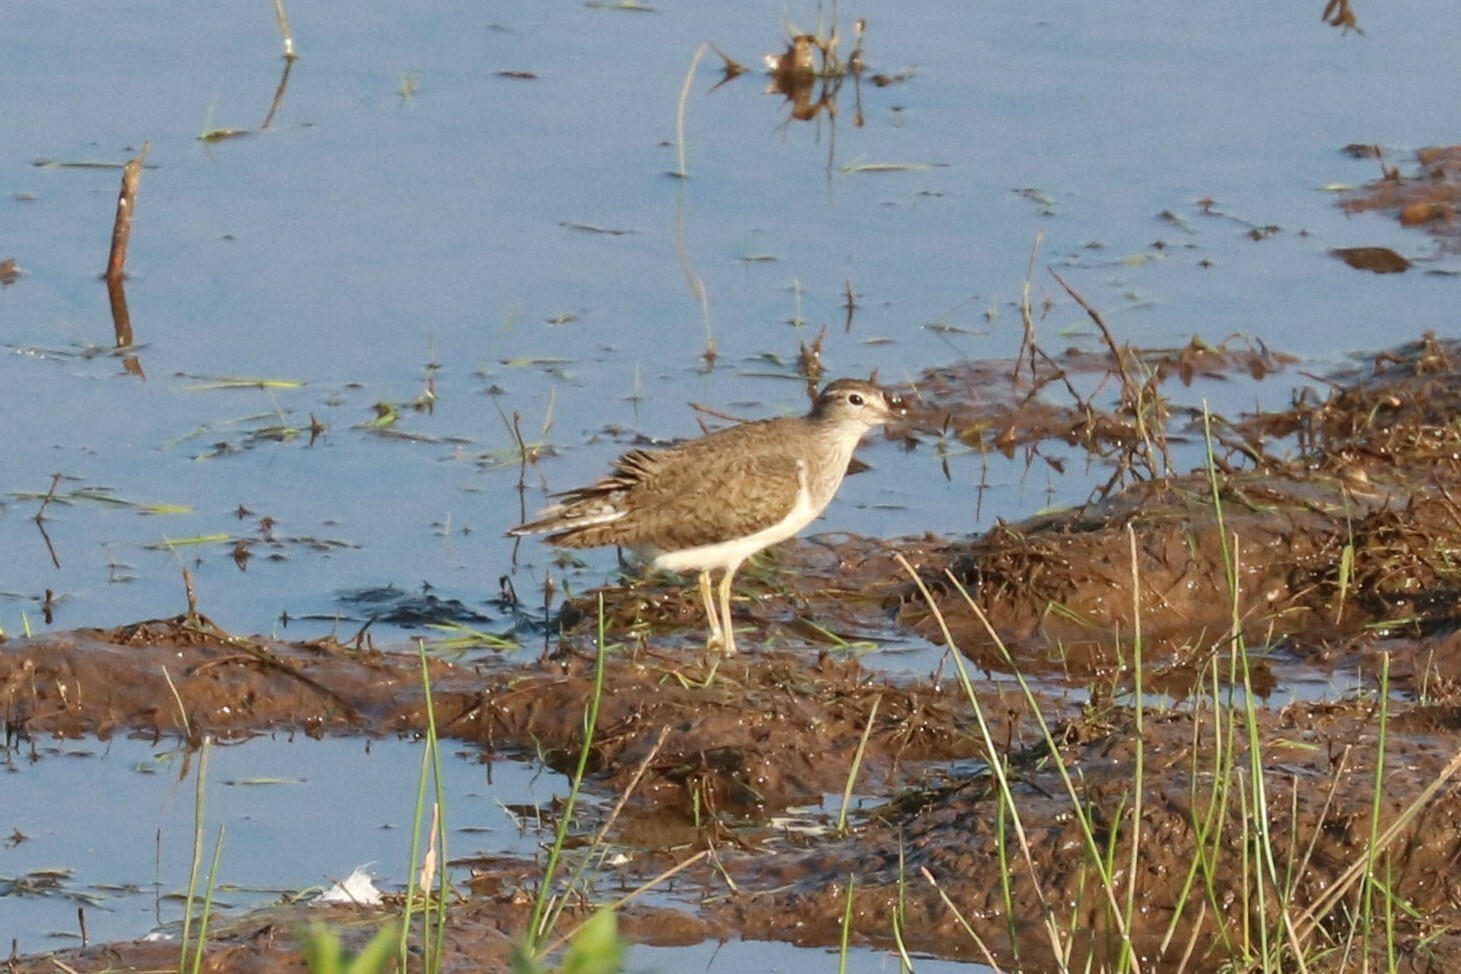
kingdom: Animalia
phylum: Chordata
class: Aves
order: Charadriiformes
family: Scolopacidae
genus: Actitis
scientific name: Actitis hypoleucos
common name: Common sandpiper
